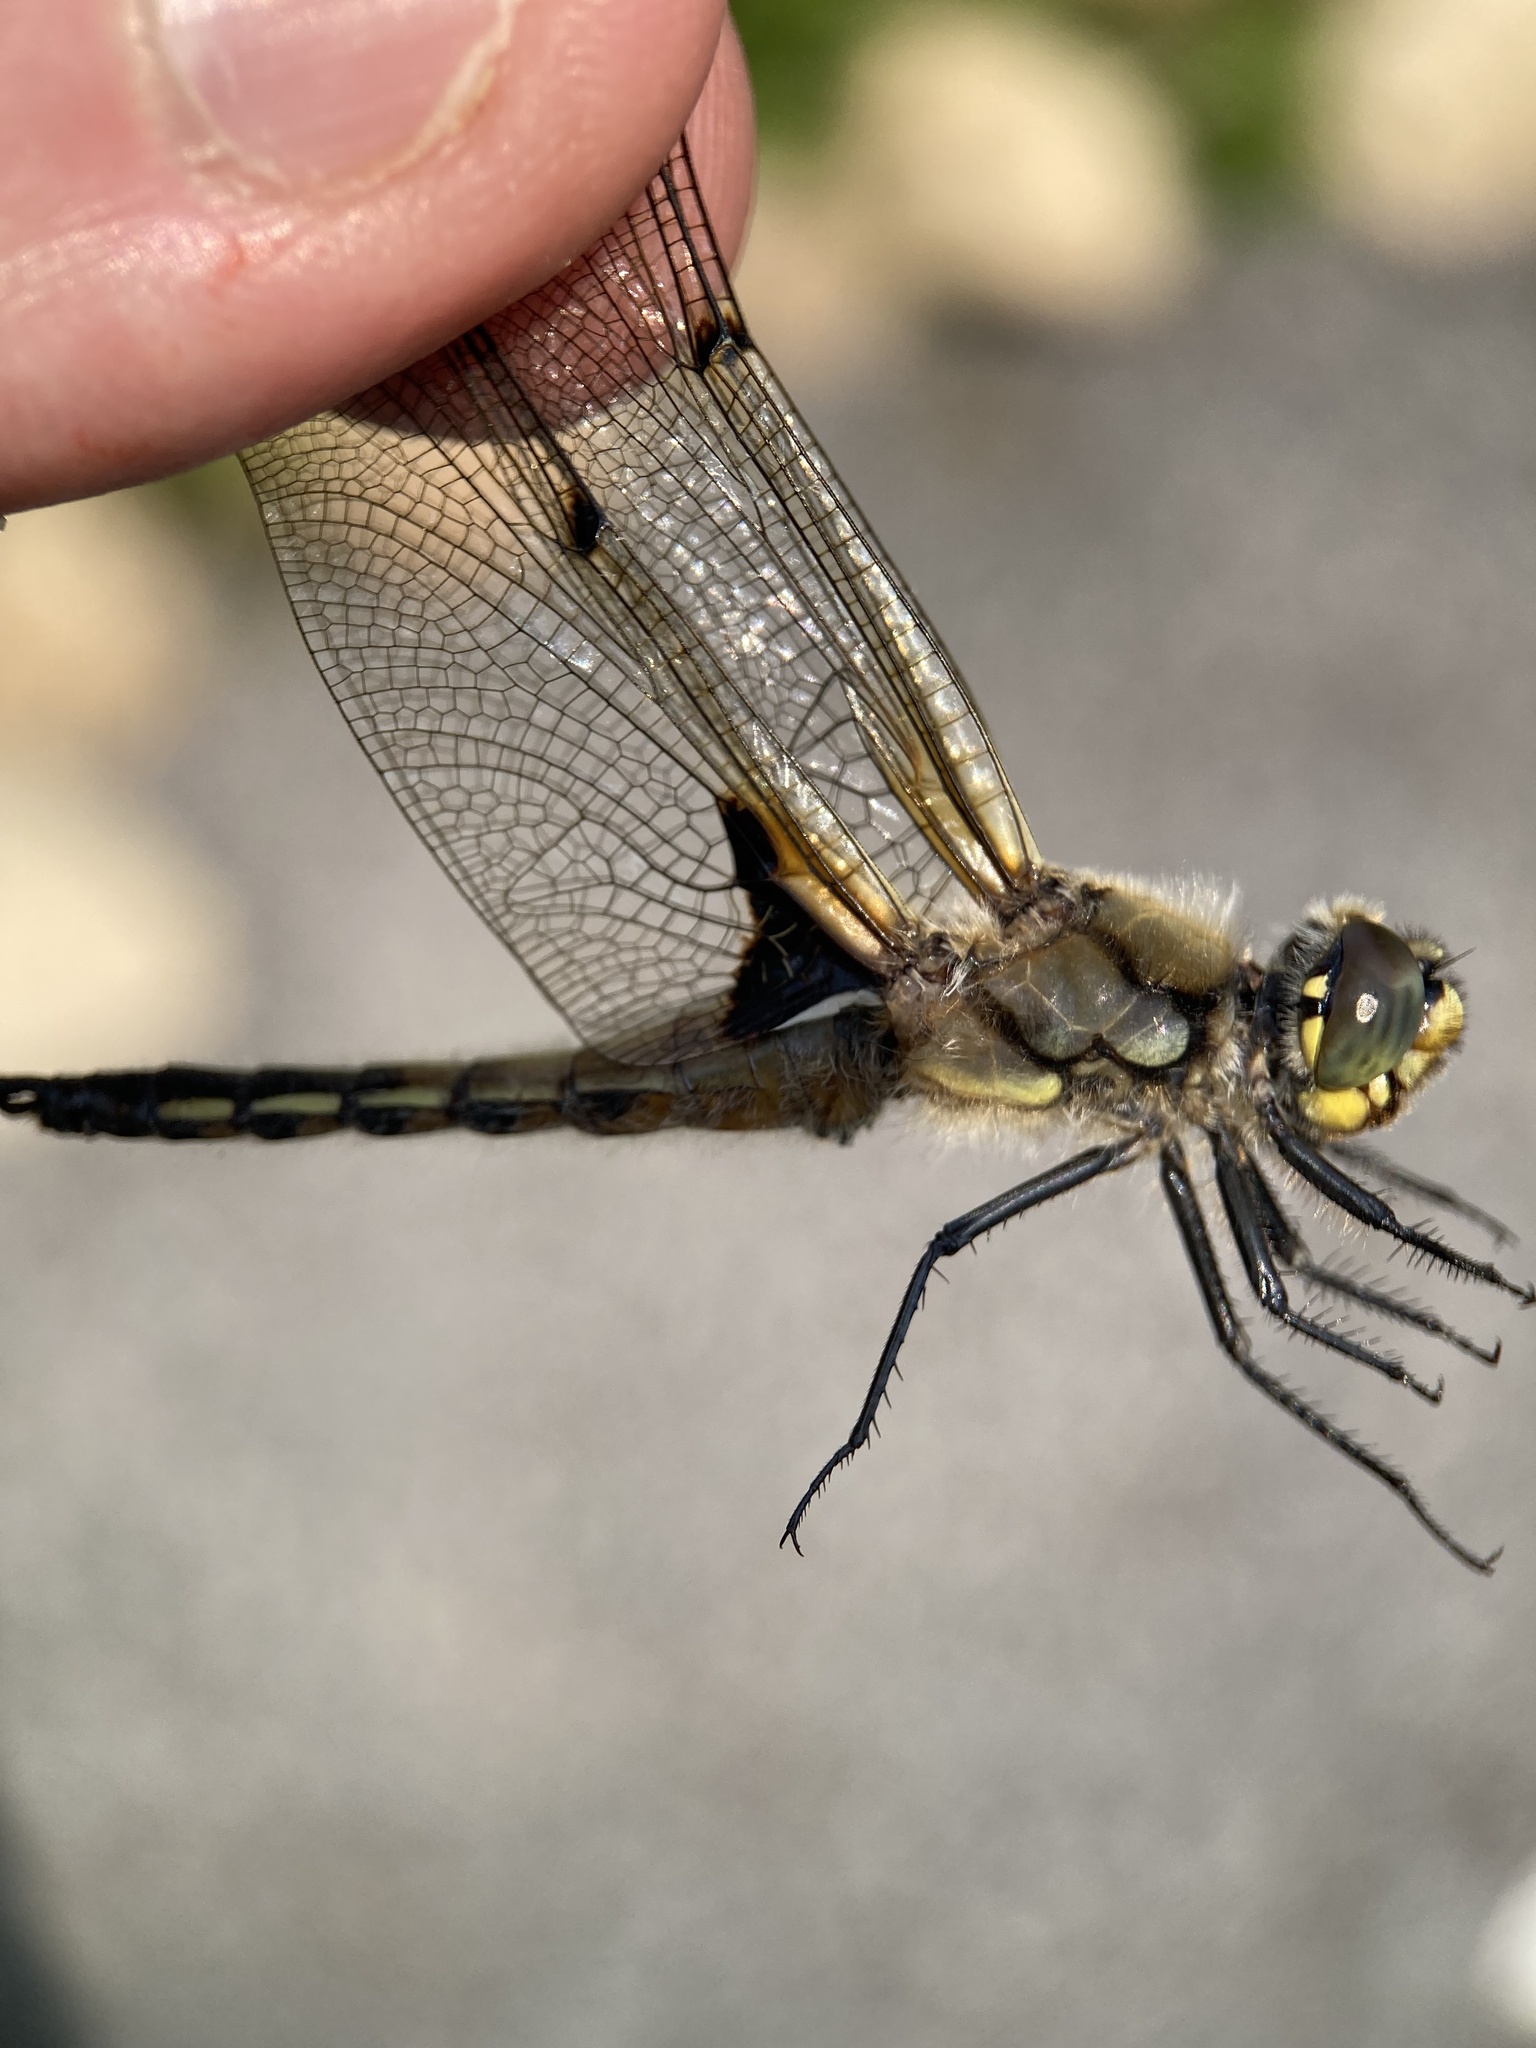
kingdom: Animalia
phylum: Arthropoda
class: Insecta
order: Odonata
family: Libellulidae
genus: Libellula
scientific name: Libellula quadrimaculata
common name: Four-spotted chaser
